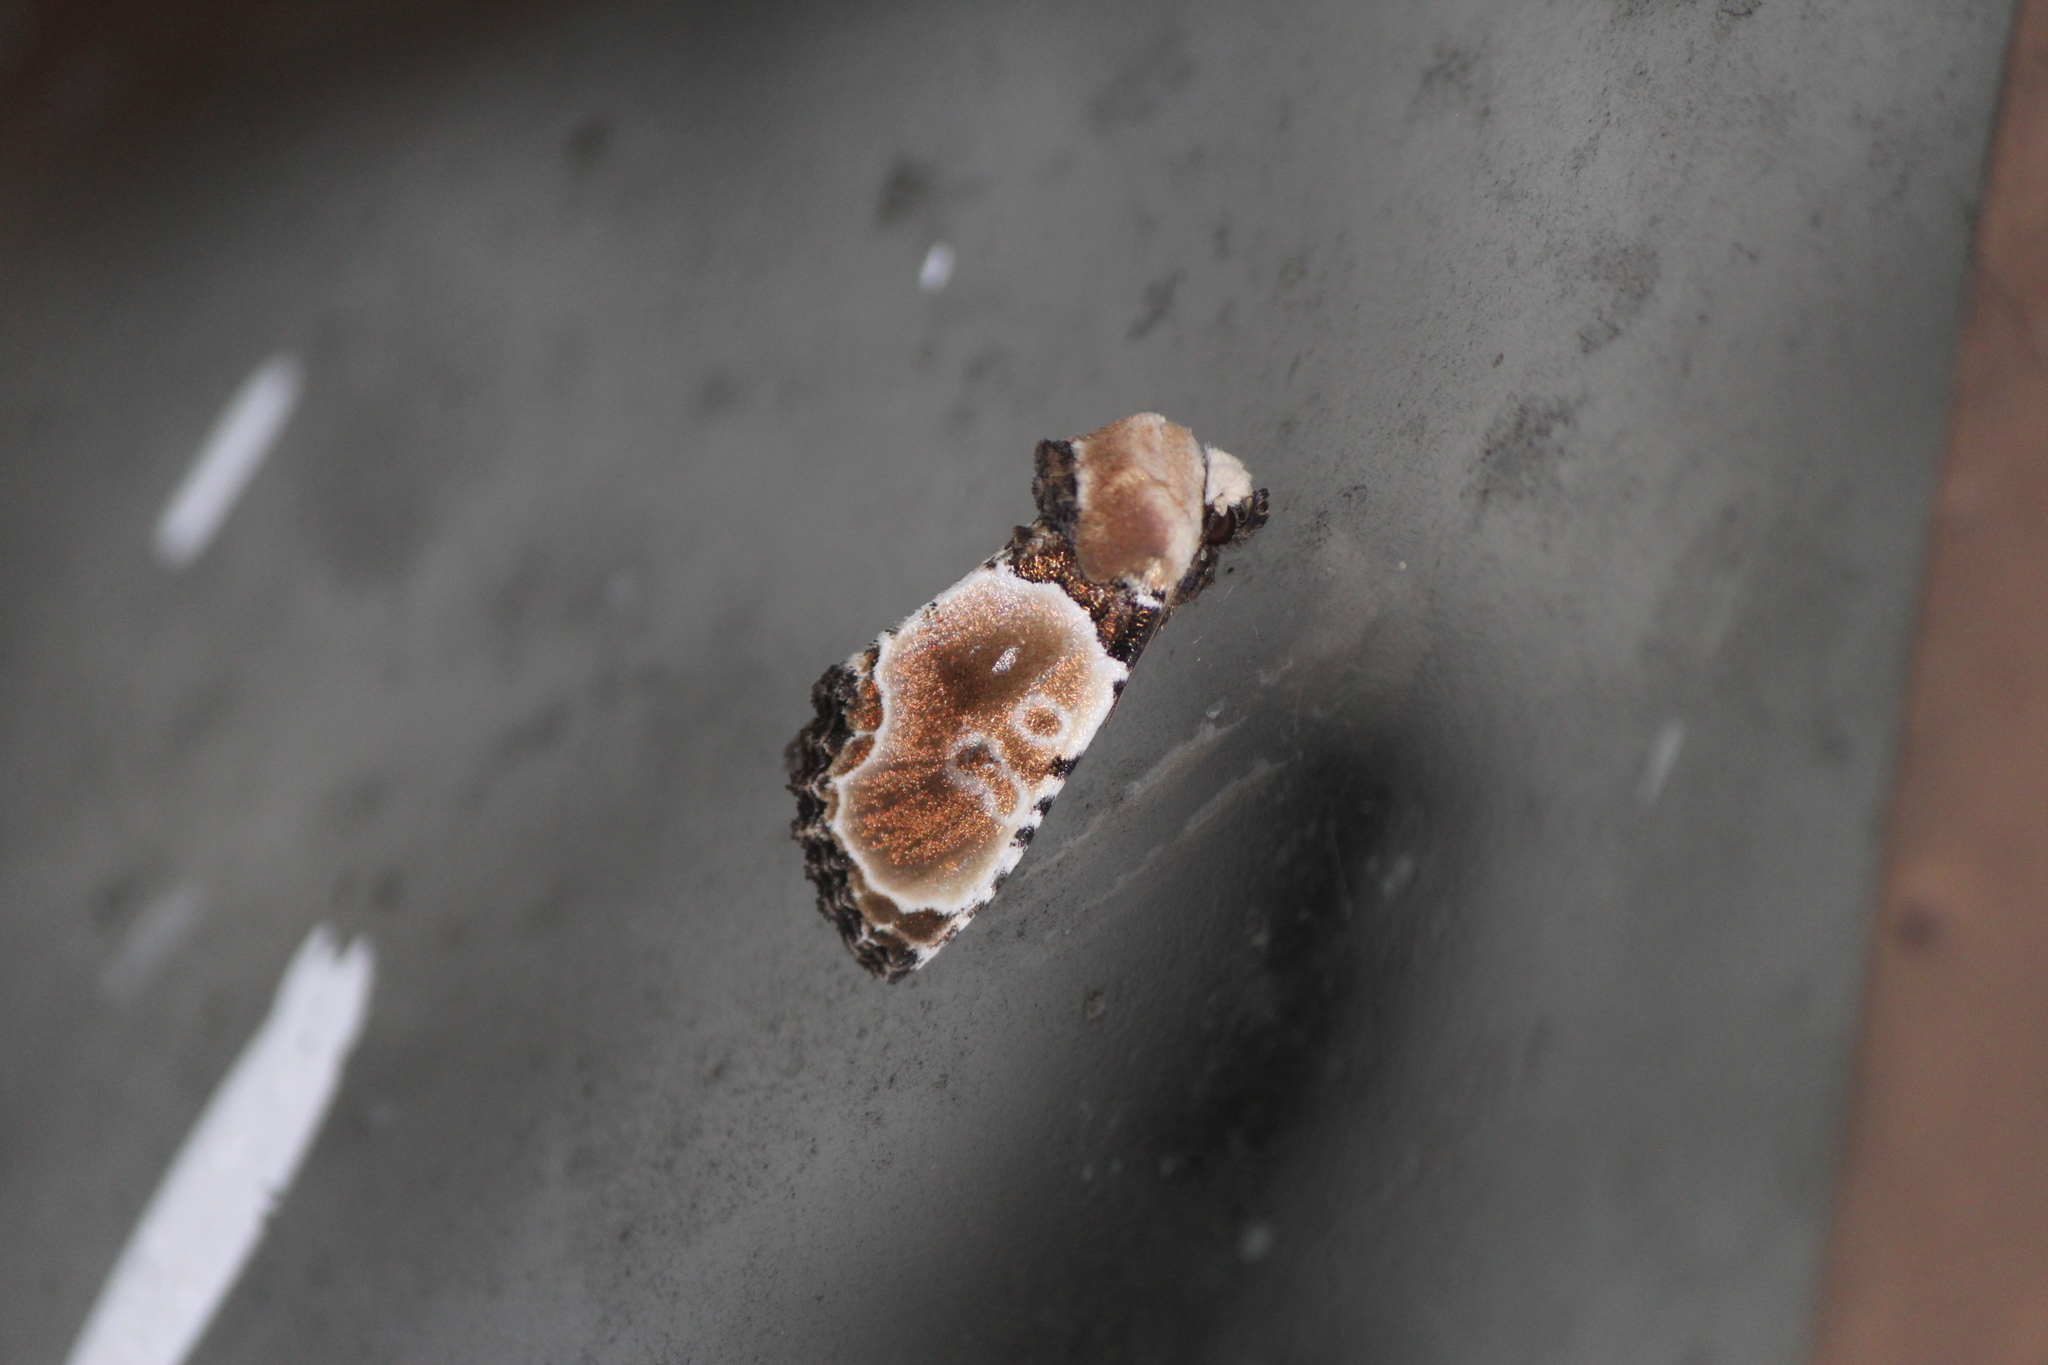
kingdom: Animalia
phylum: Arthropoda
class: Insecta
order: Lepidoptera
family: Noctuidae
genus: Thyatirodes
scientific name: Thyatirodes godalma
